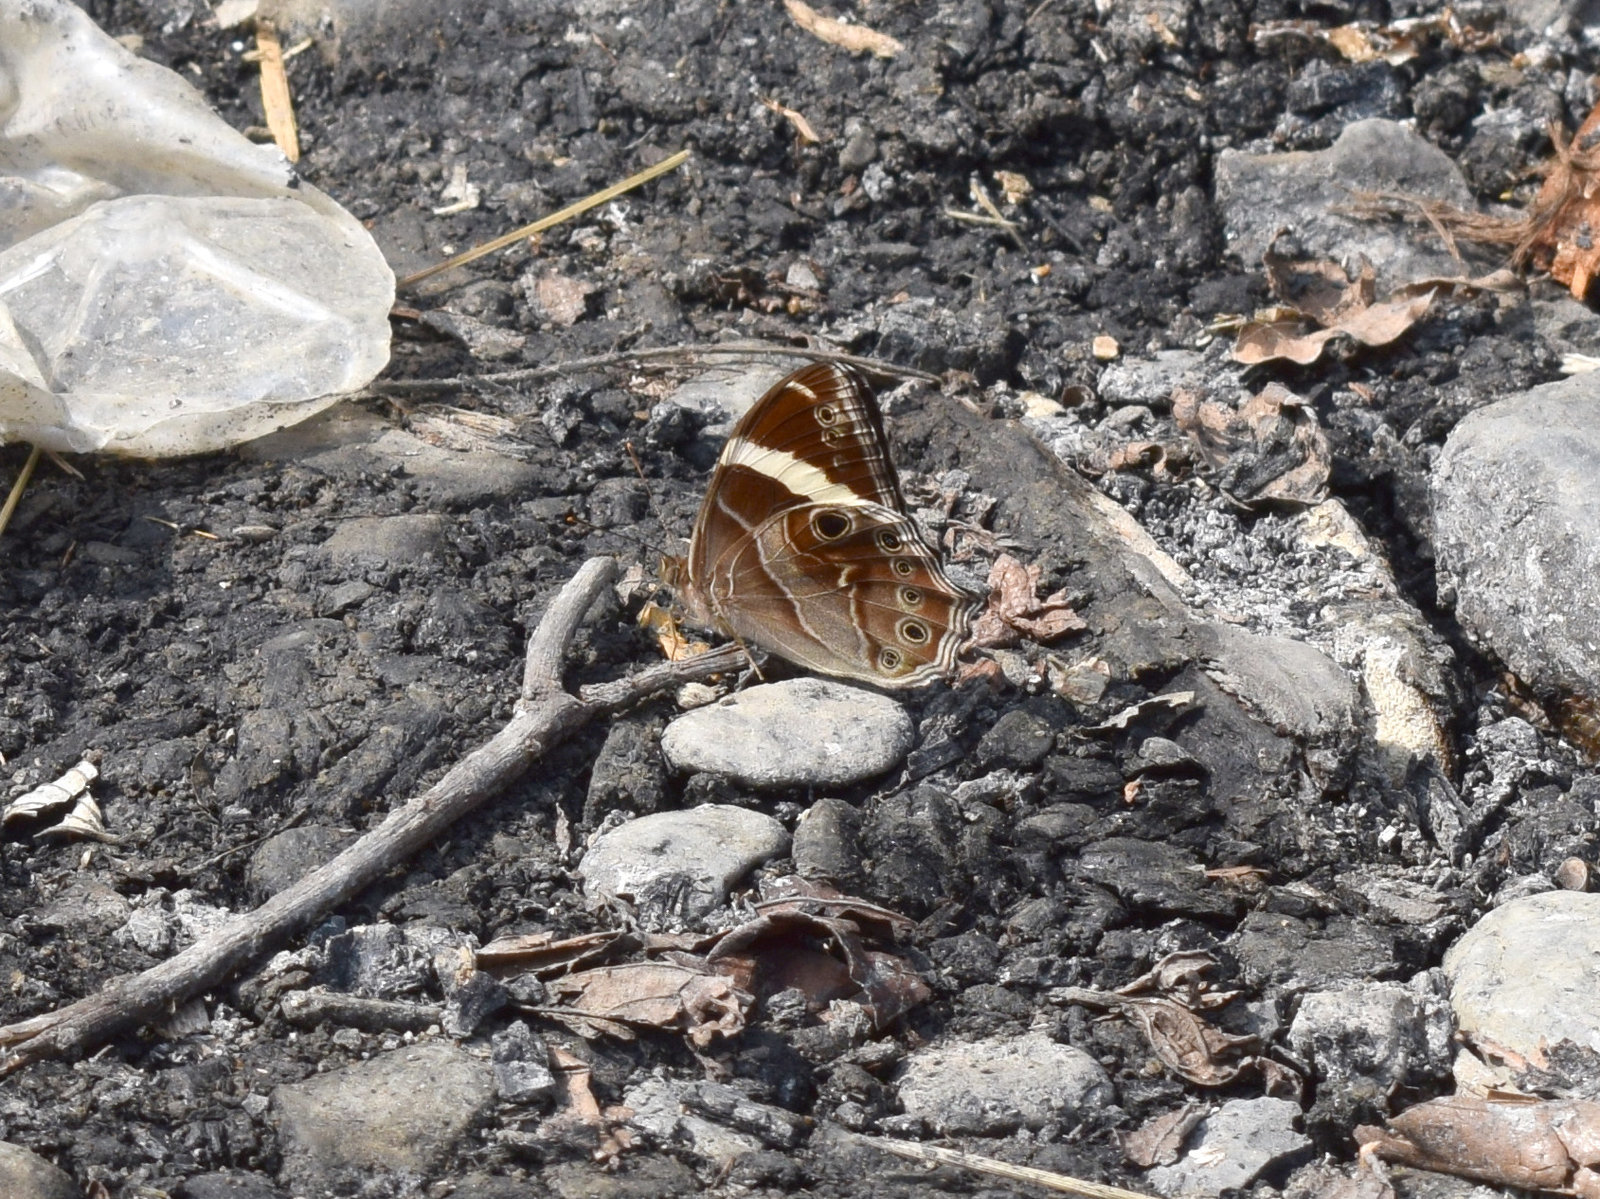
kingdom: Animalia
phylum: Arthropoda
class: Insecta
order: Lepidoptera
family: Nymphalidae
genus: Lethe
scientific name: Lethe confusa
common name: Banded treebrown
